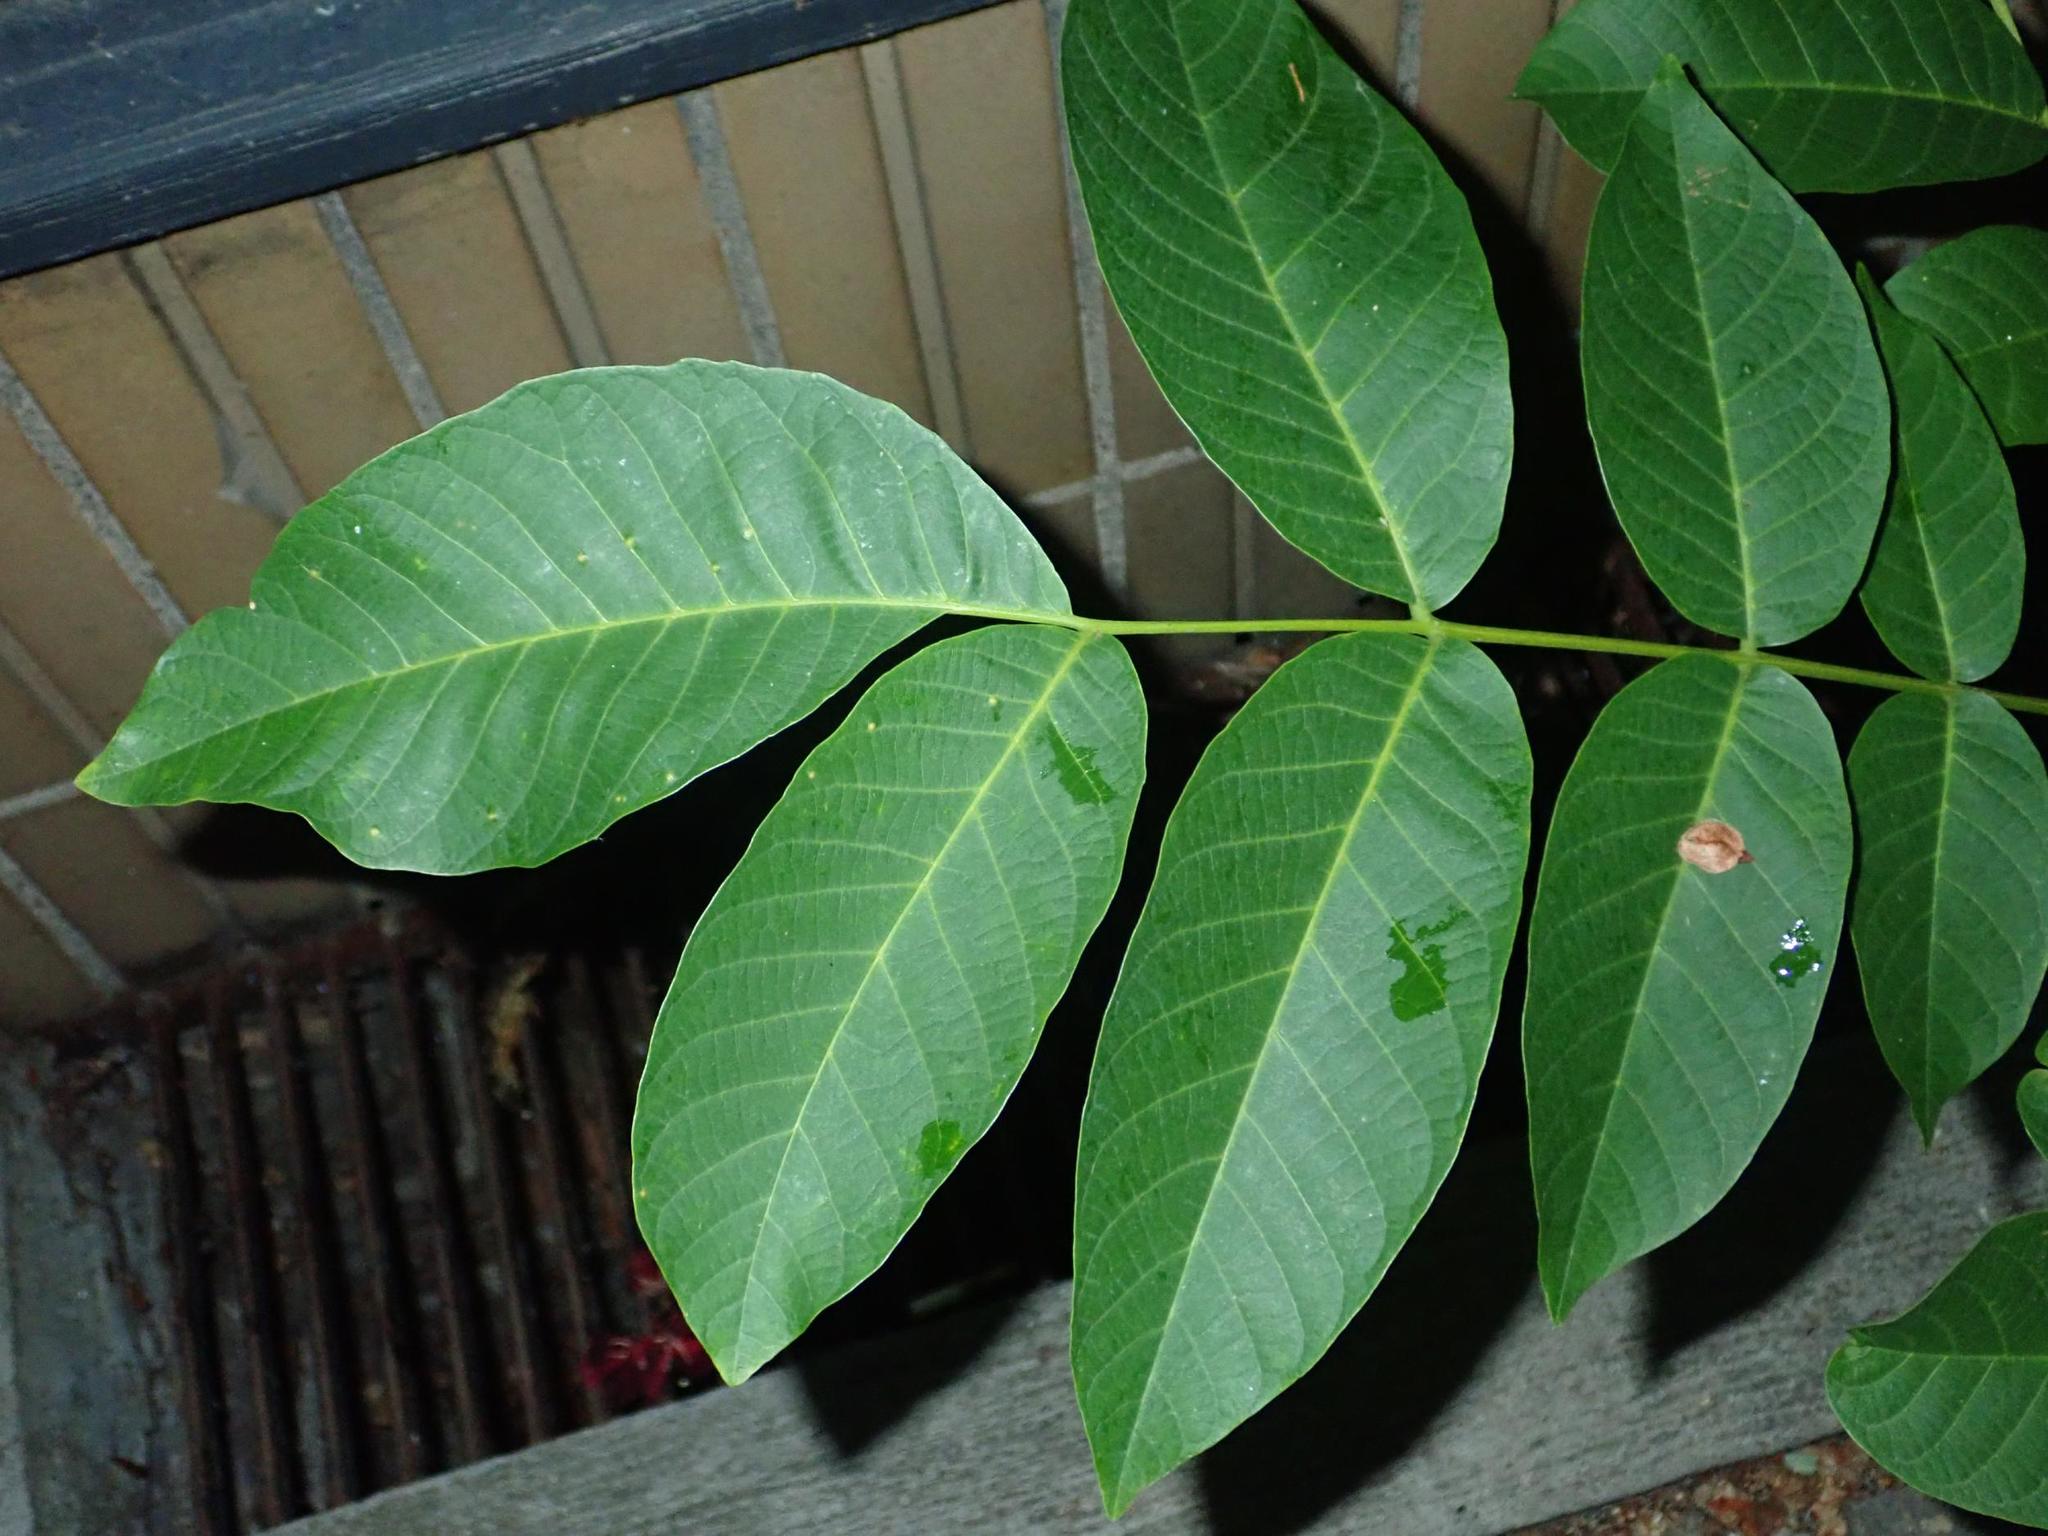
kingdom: Plantae
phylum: Tracheophyta
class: Magnoliopsida
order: Fagales
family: Juglandaceae
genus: Juglans
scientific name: Juglans regia
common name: Walnut
